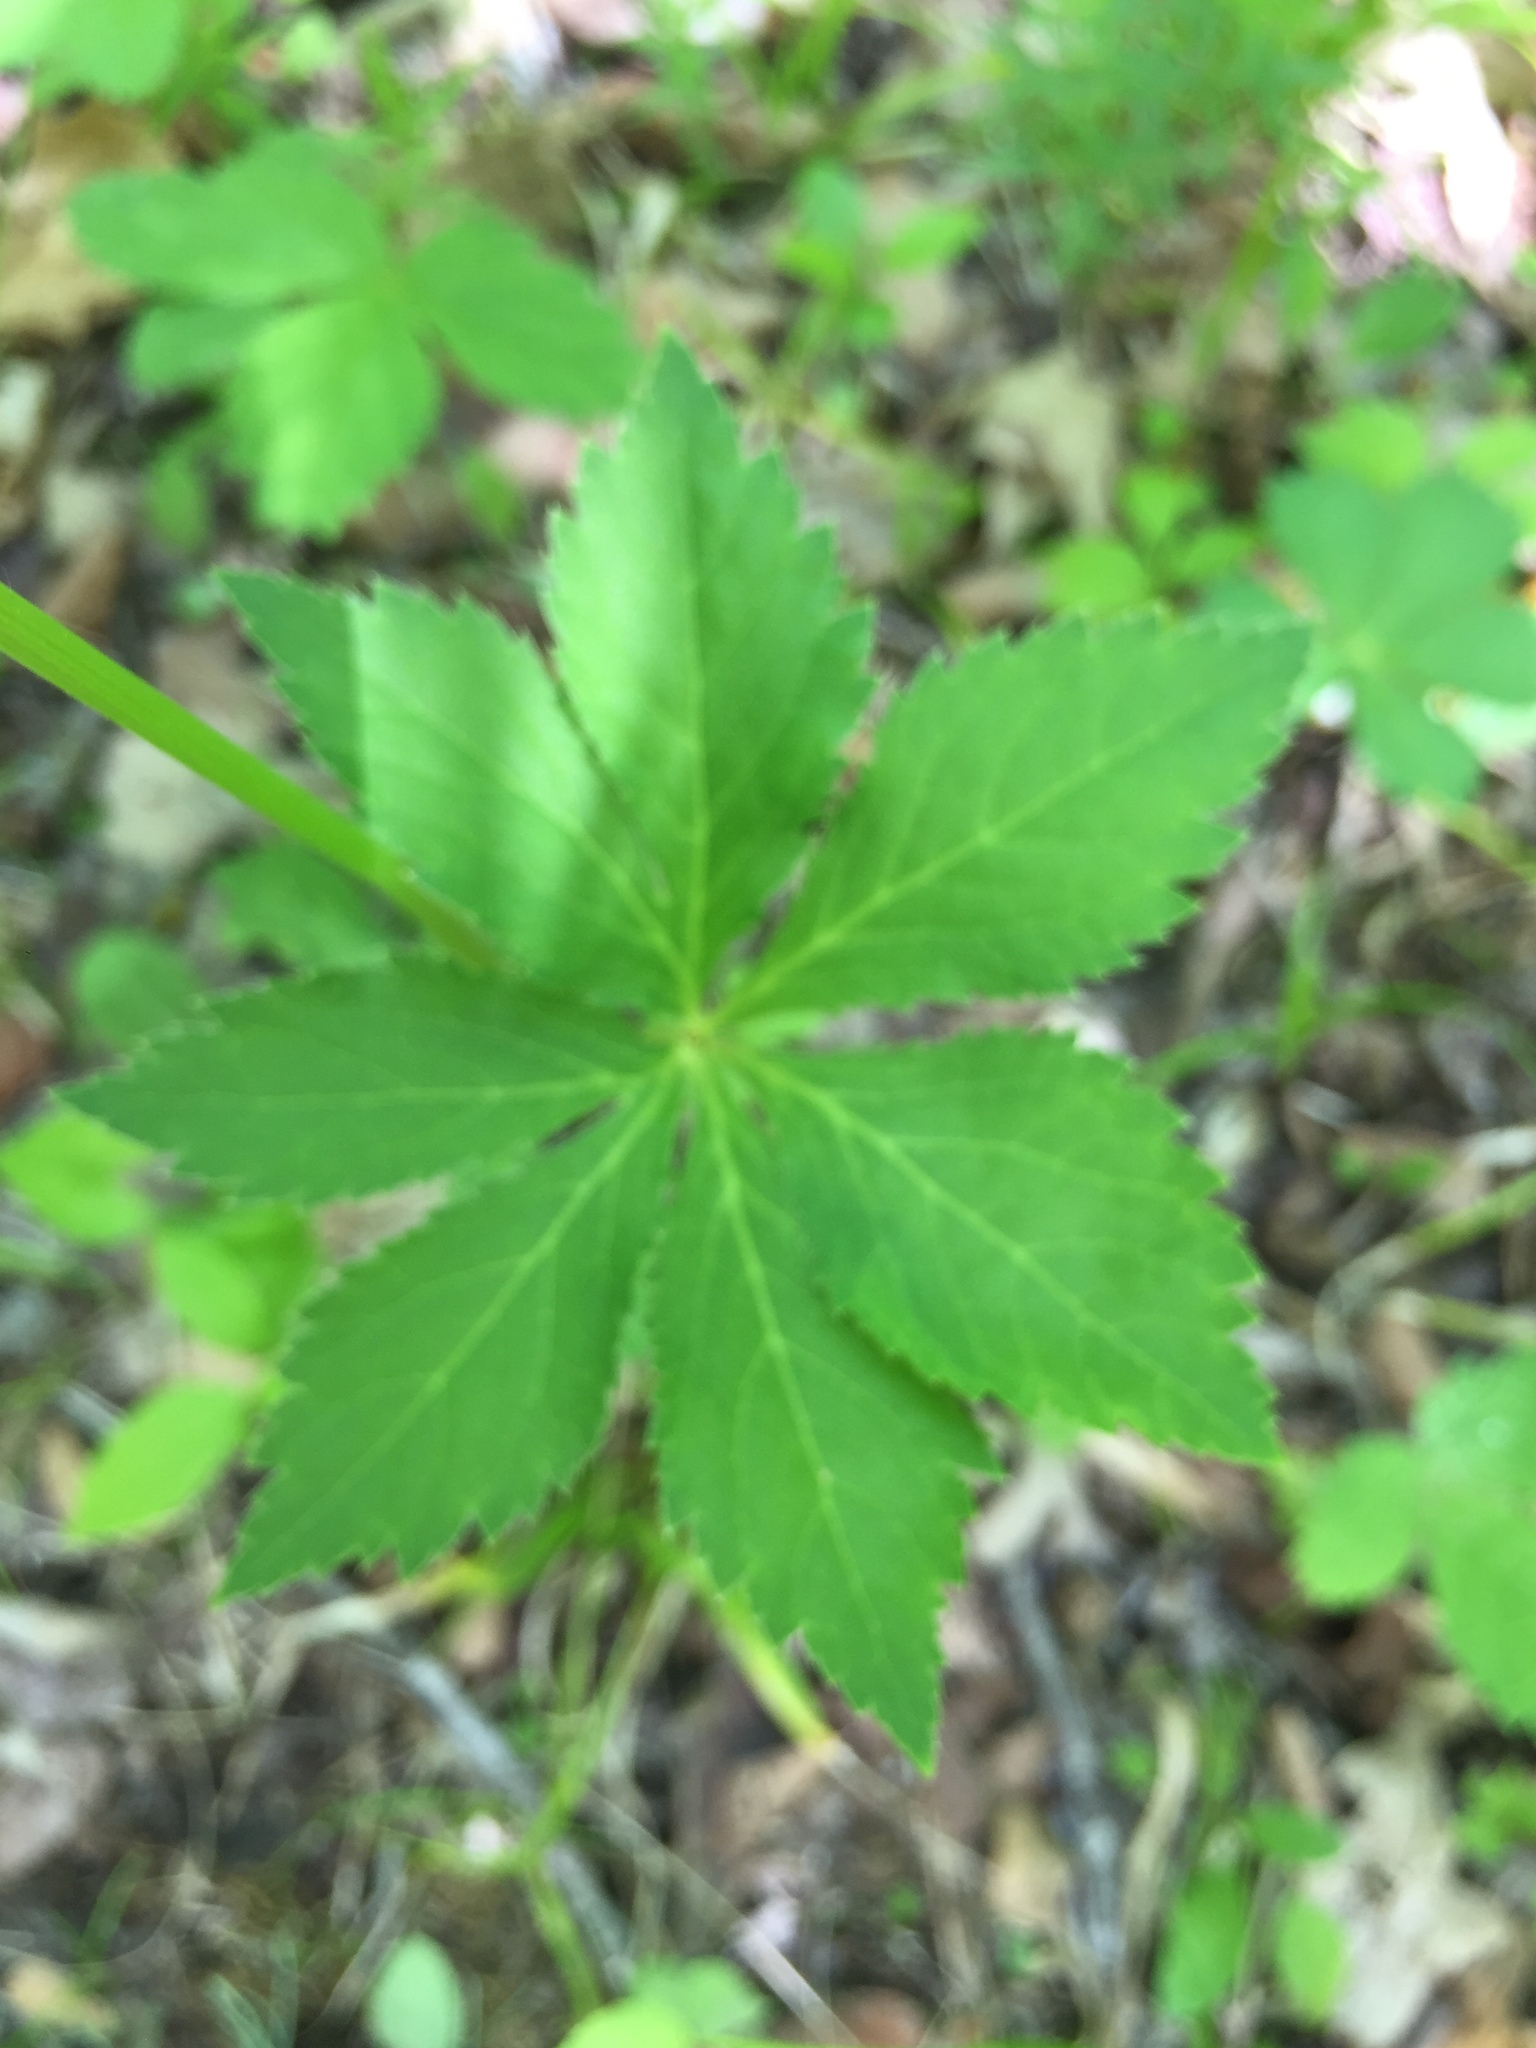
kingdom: Plantae
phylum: Tracheophyta
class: Magnoliopsida
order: Apiales
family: Apiaceae
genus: Sanicula
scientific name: Sanicula marilandica
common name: Black snakeroot
